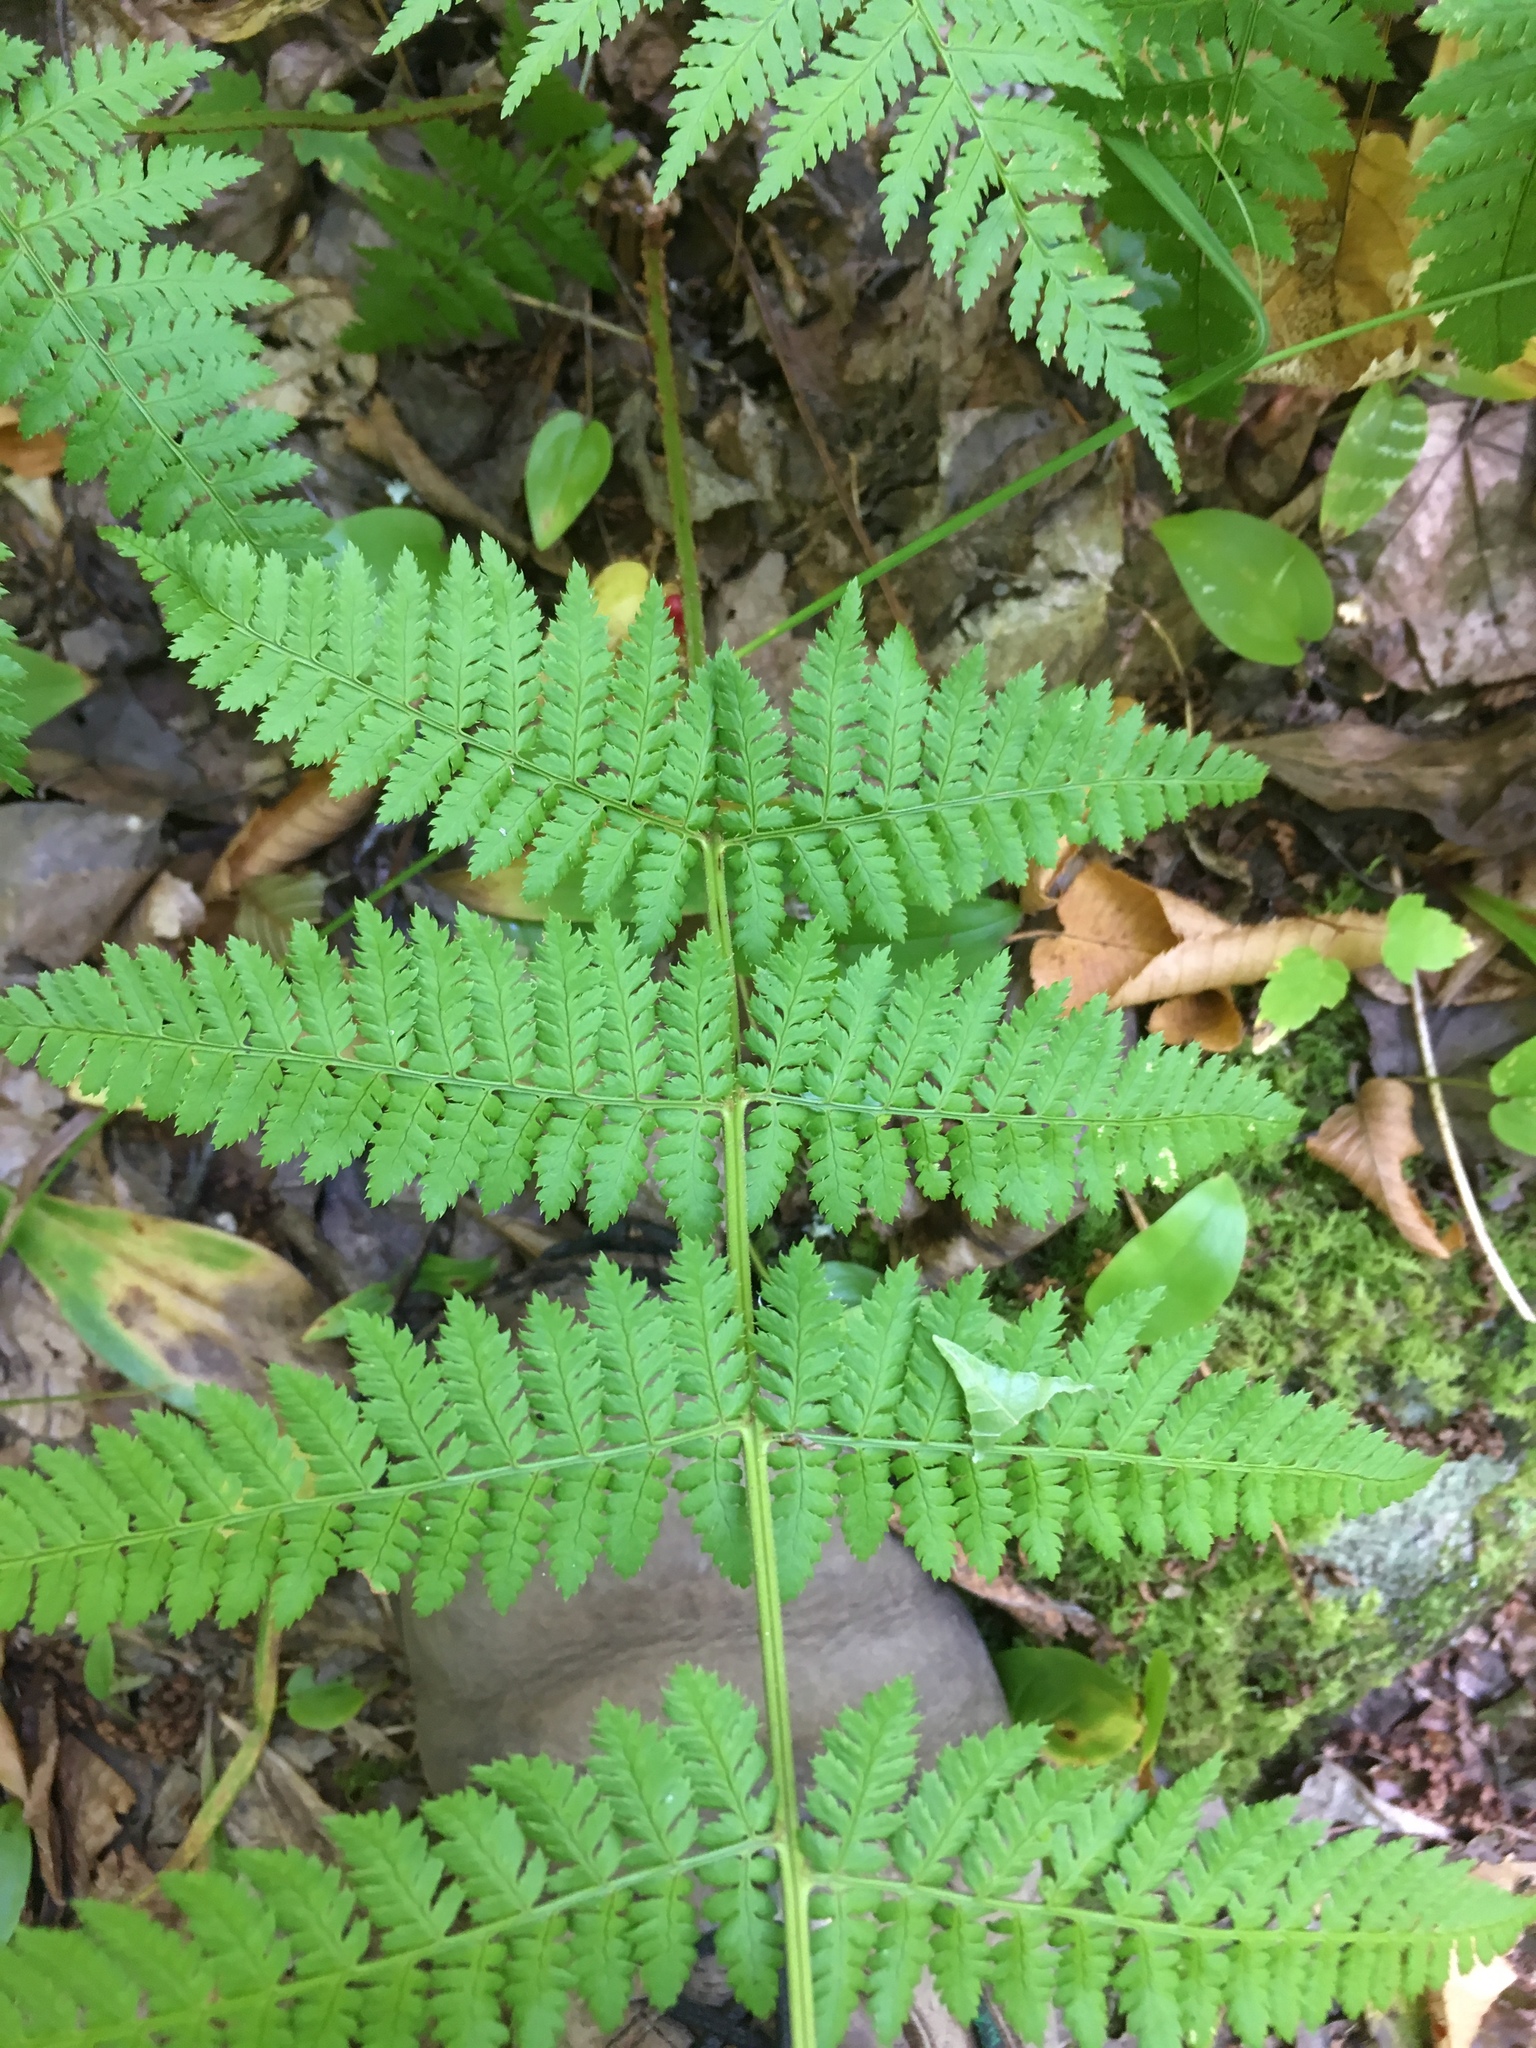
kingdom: Plantae
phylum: Tracheophyta
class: Polypodiopsida
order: Polypodiales
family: Dryopteridaceae
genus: Dryopteris
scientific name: Dryopteris intermedia
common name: Evergreen wood fern
